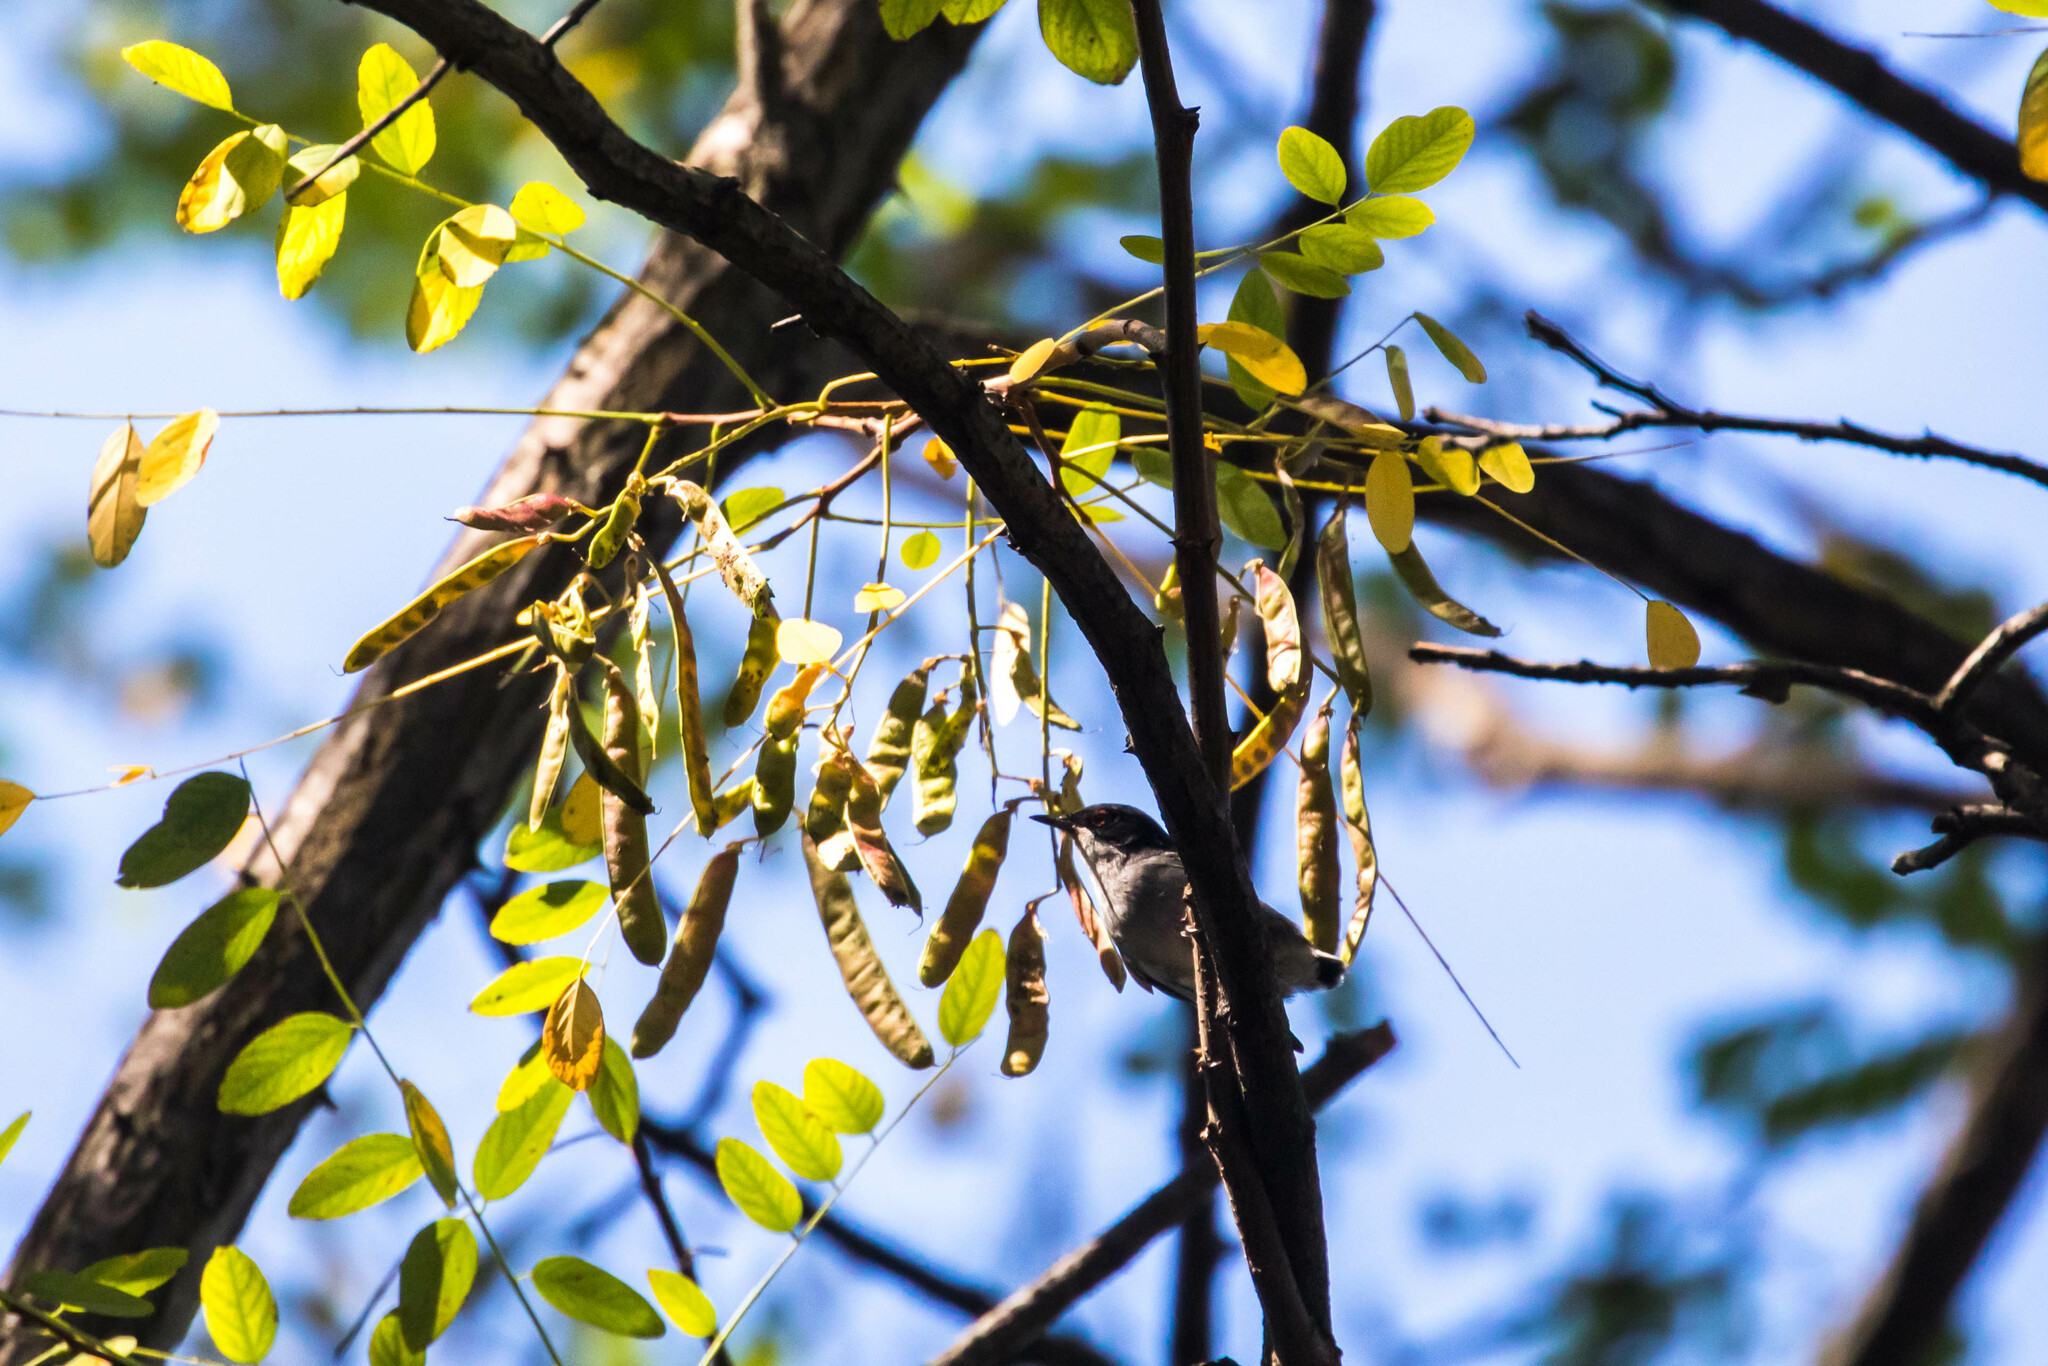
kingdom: Animalia
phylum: Chordata
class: Aves
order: Passeriformes
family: Sylviidae
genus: Curruca
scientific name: Curruca melanocephala
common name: Sardinian warbler
